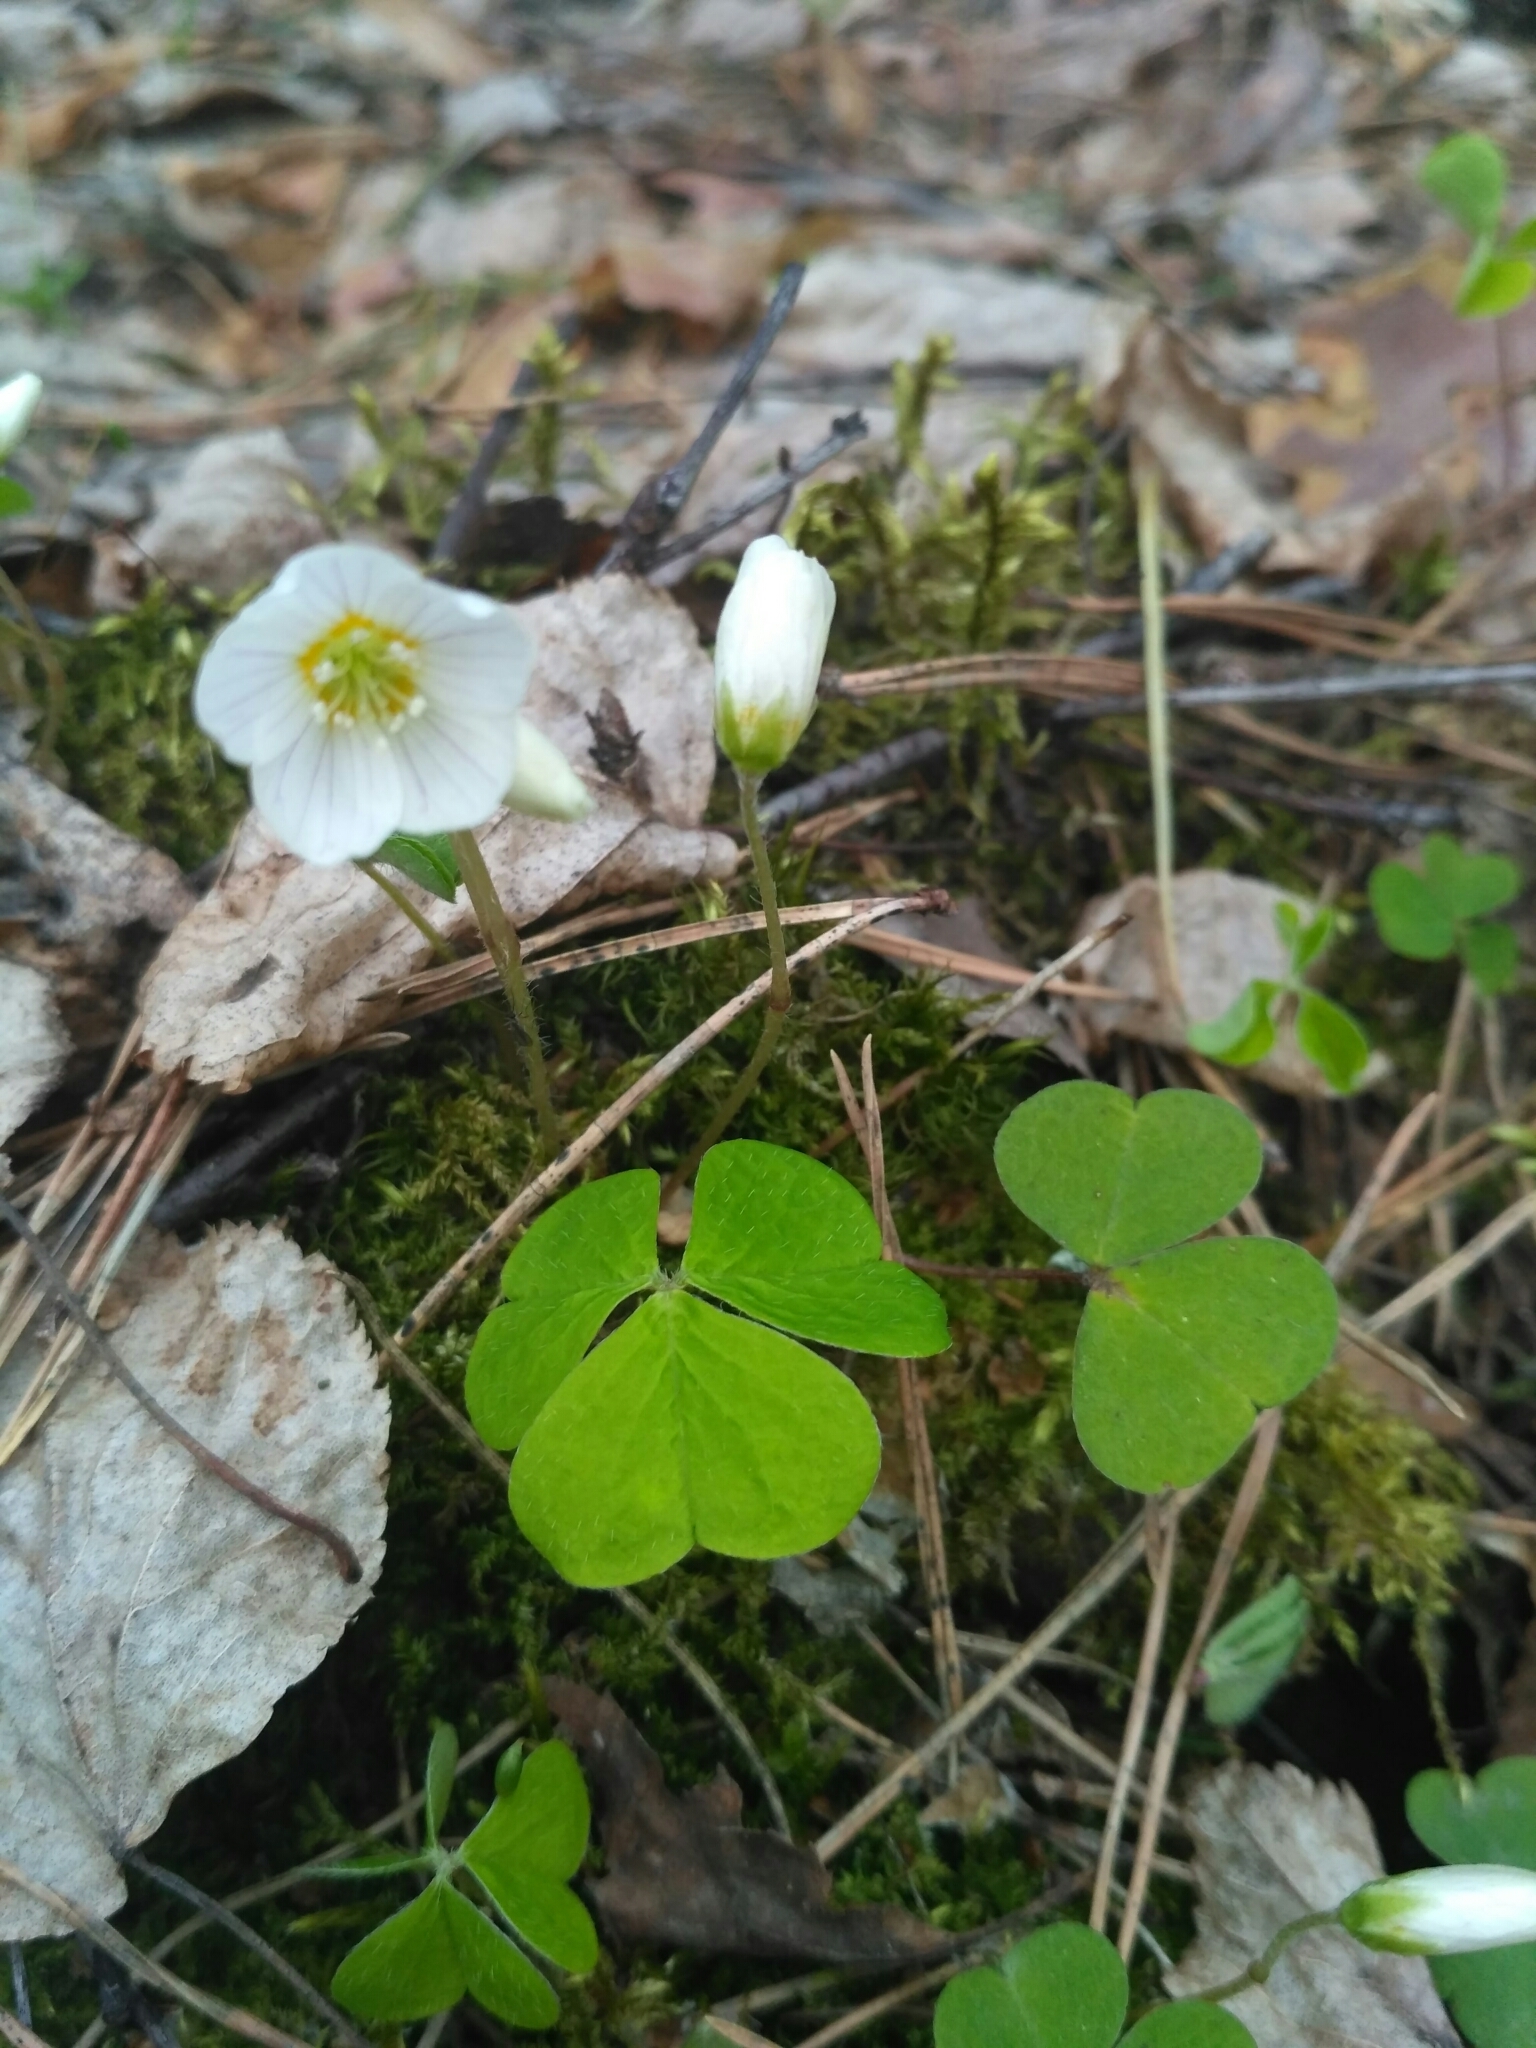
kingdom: Plantae
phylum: Tracheophyta
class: Magnoliopsida
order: Oxalidales
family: Oxalidaceae
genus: Oxalis
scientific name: Oxalis acetosella
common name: Wood-sorrel
